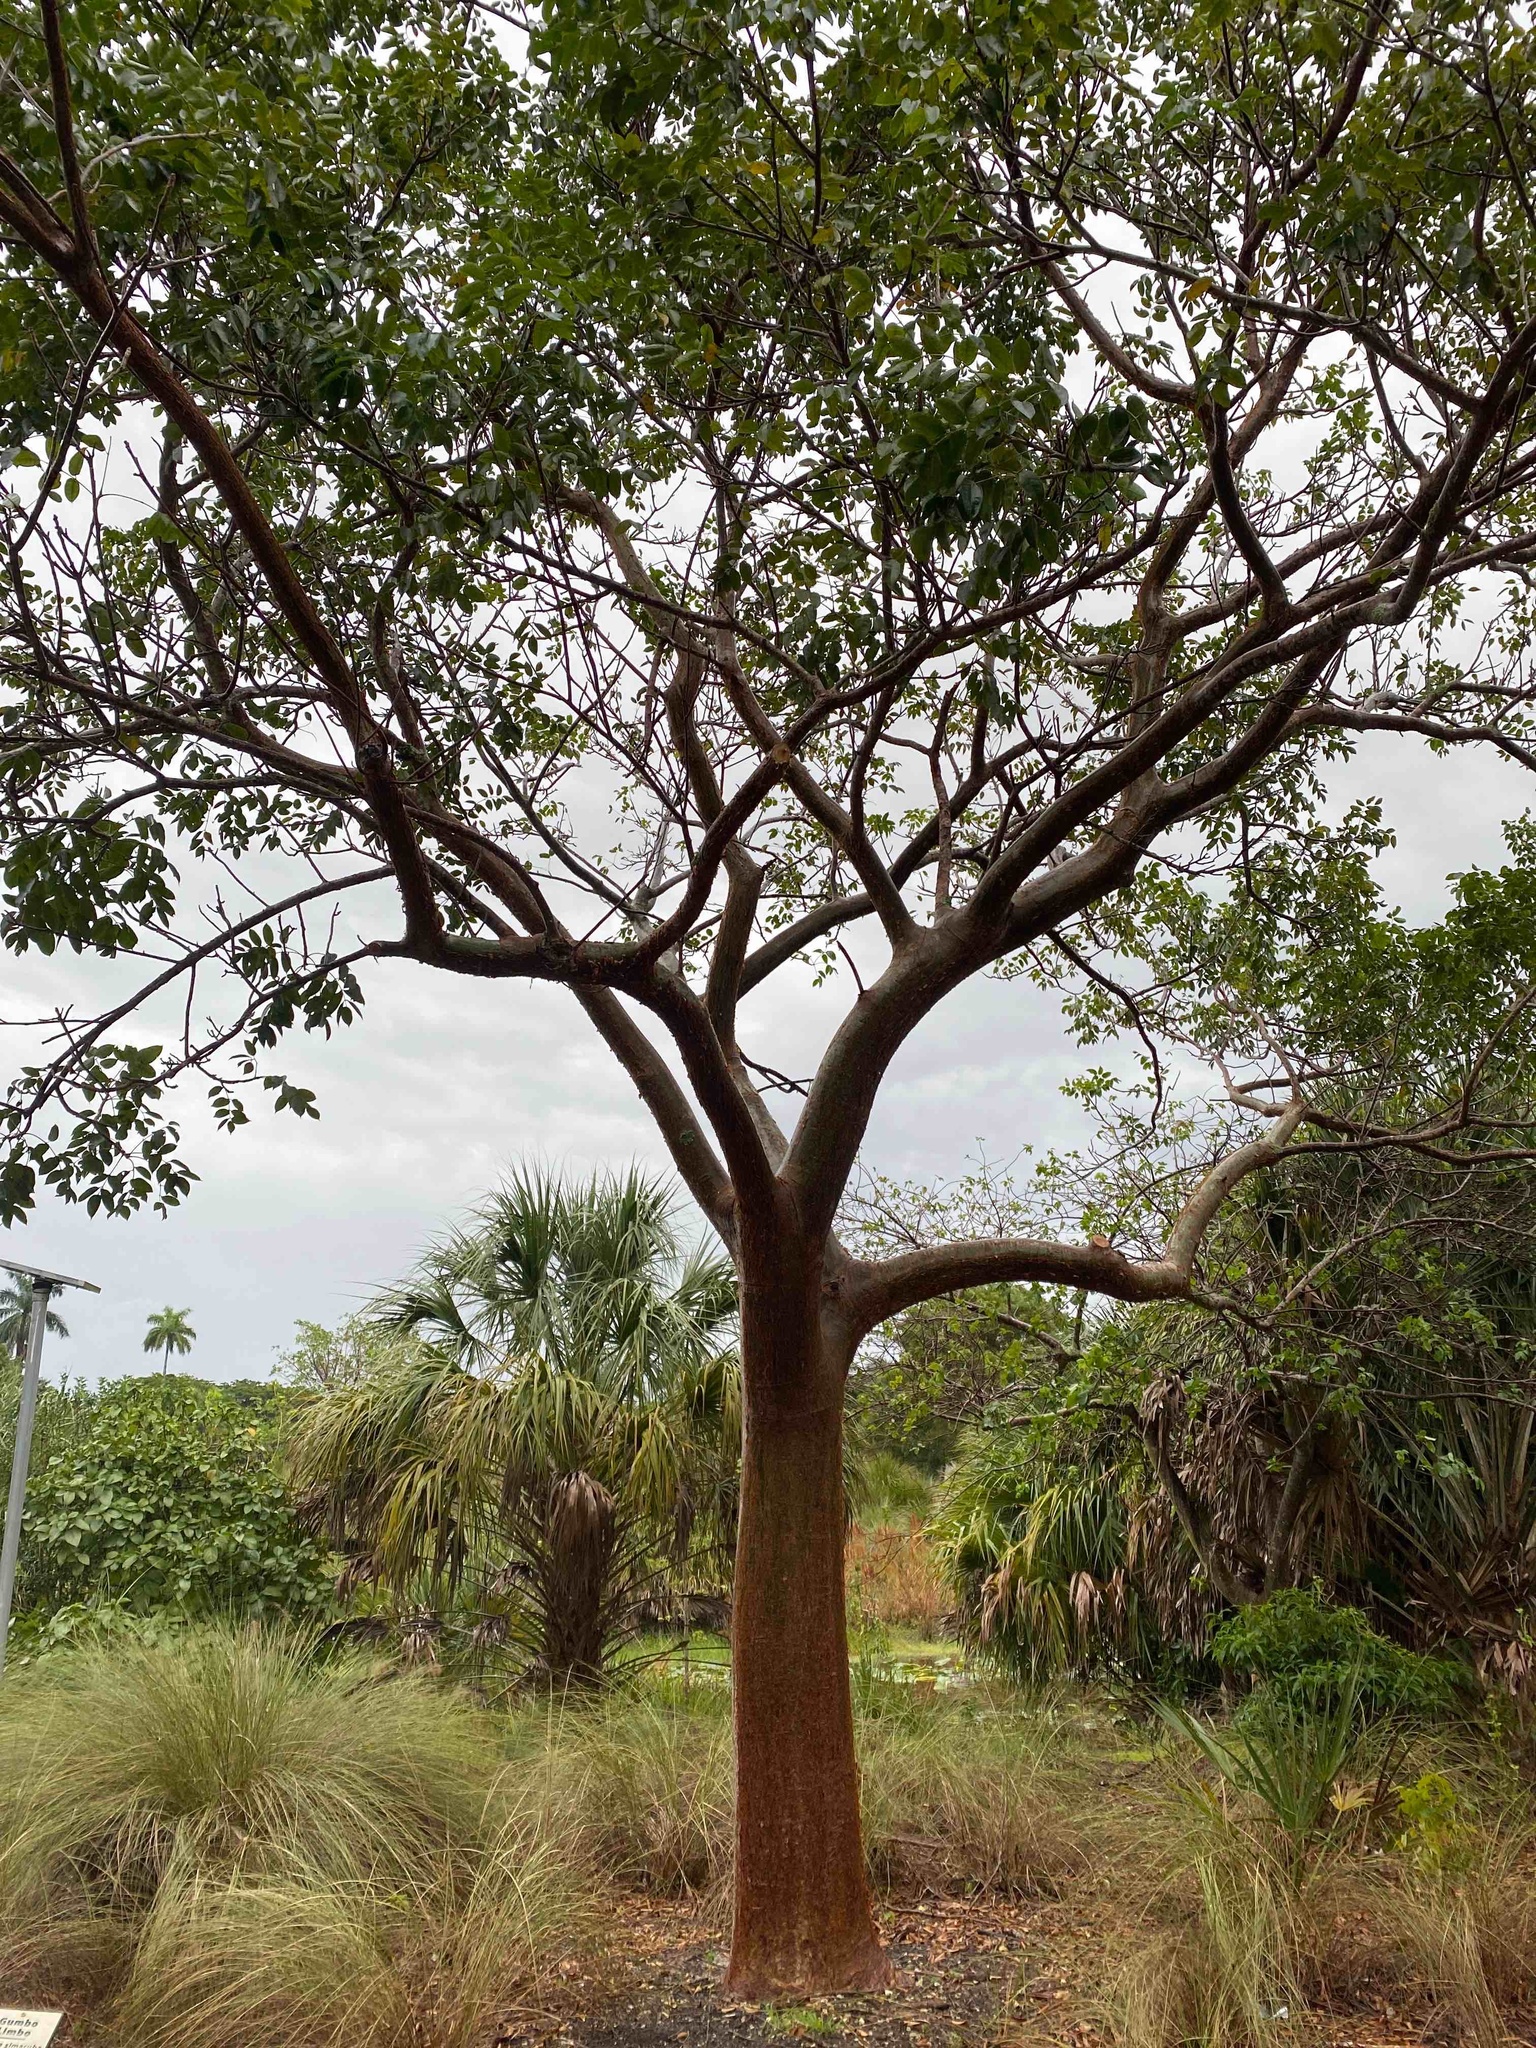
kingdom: Plantae
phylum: Tracheophyta
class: Magnoliopsida
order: Sapindales
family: Burseraceae
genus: Bursera
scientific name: Bursera simaruba
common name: Turpentine tree
